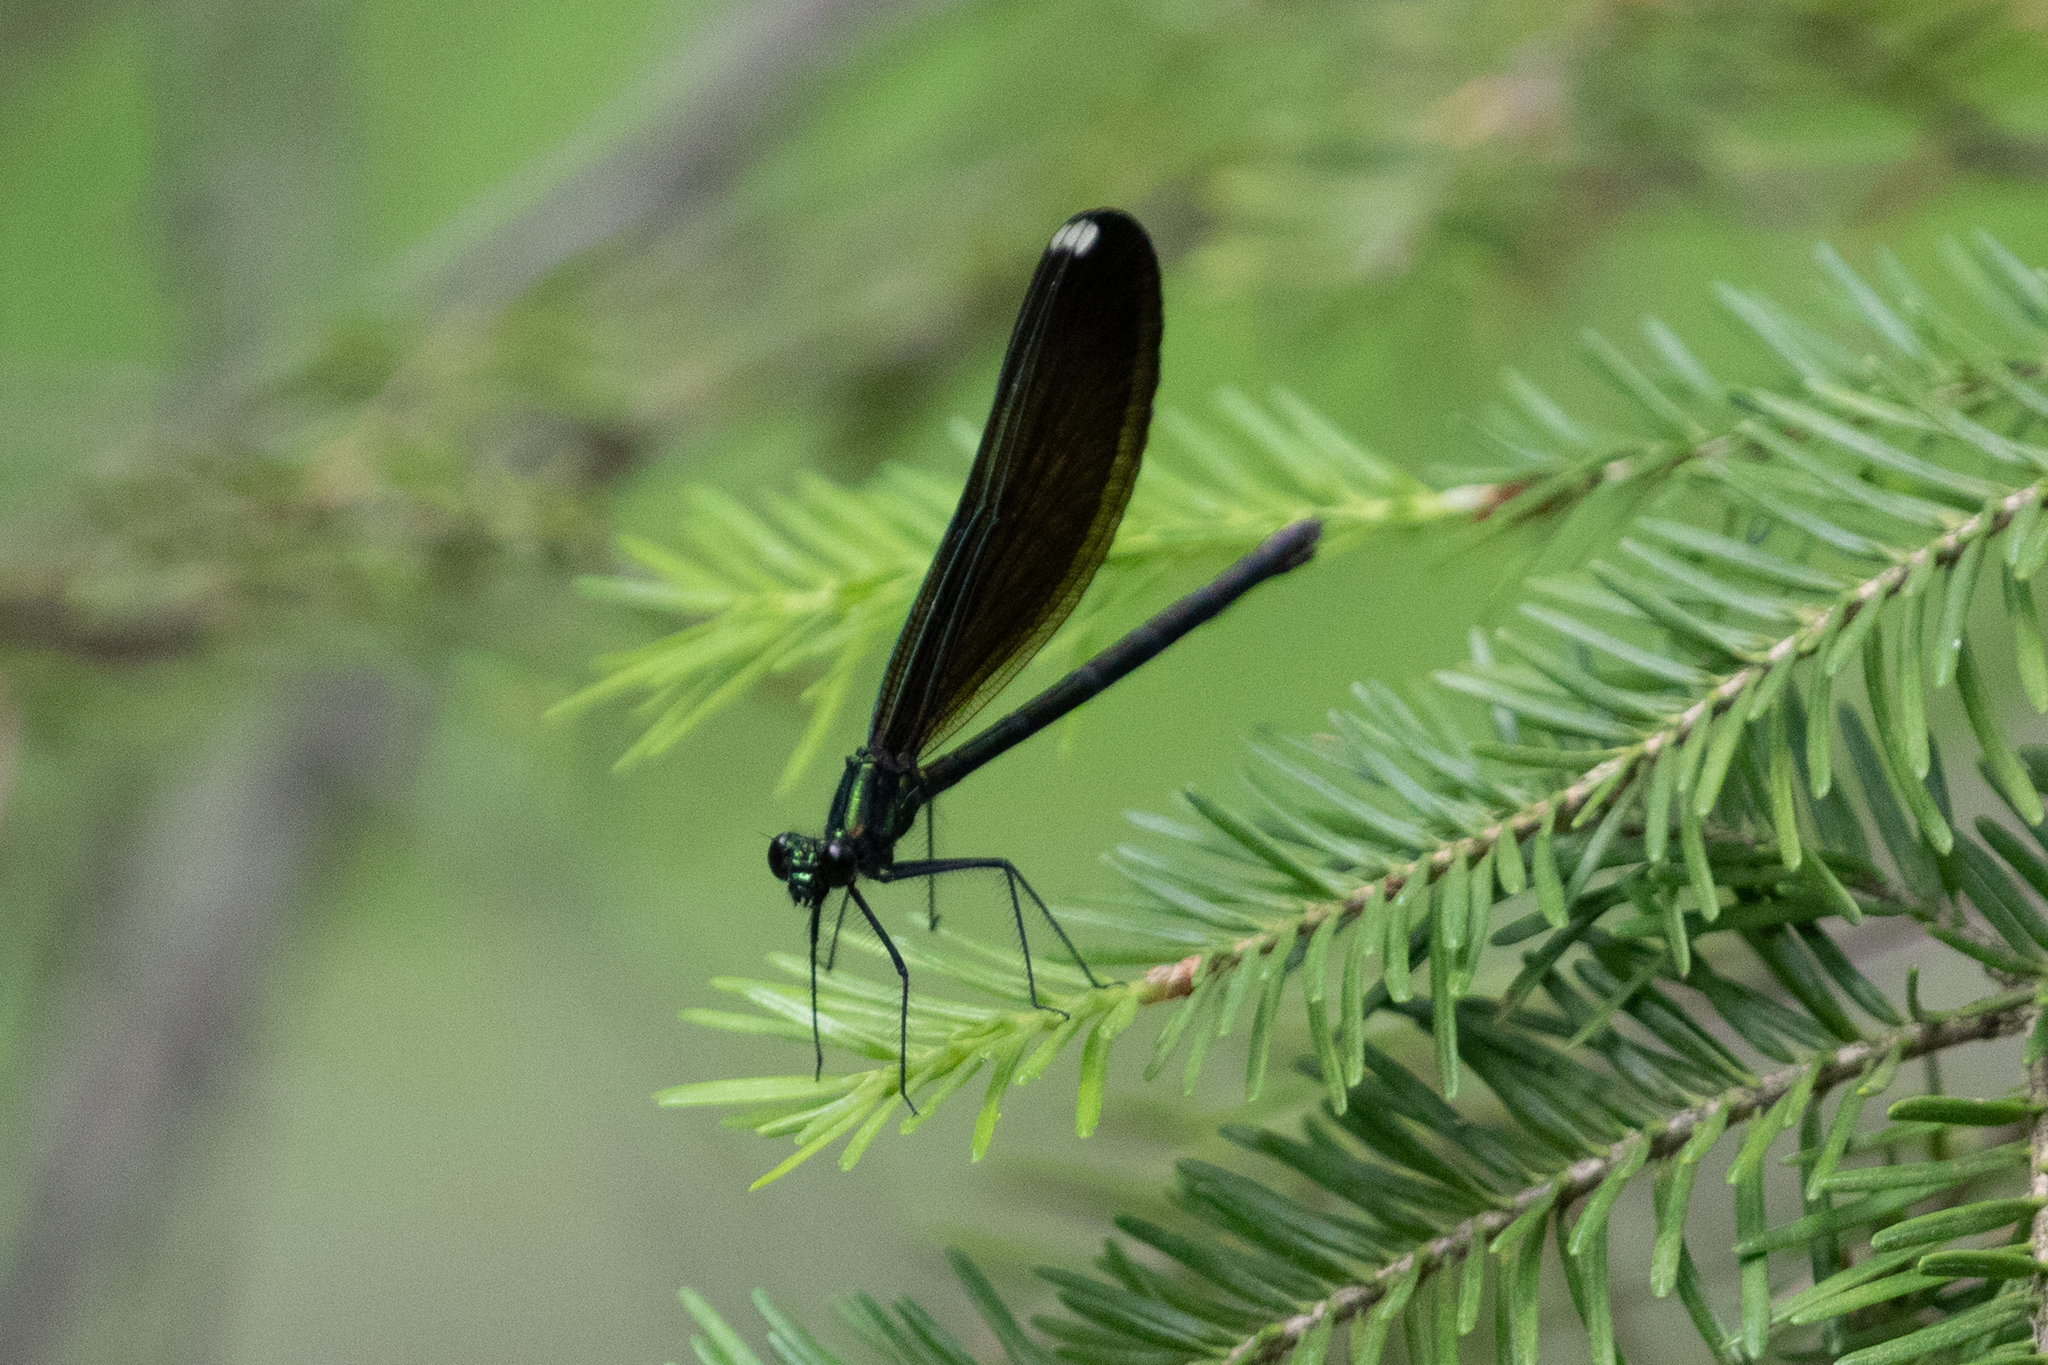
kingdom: Animalia
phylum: Arthropoda
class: Insecta
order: Odonata
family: Calopterygidae
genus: Calopteryx
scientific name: Calopteryx maculata
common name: Ebony jewelwing
